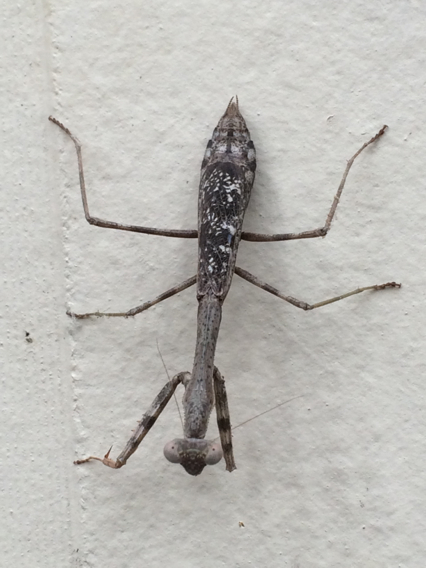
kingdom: Animalia
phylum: Arthropoda
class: Insecta
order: Mantodea
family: Mantidae
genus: Stagmomantis
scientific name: Stagmomantis carolina
